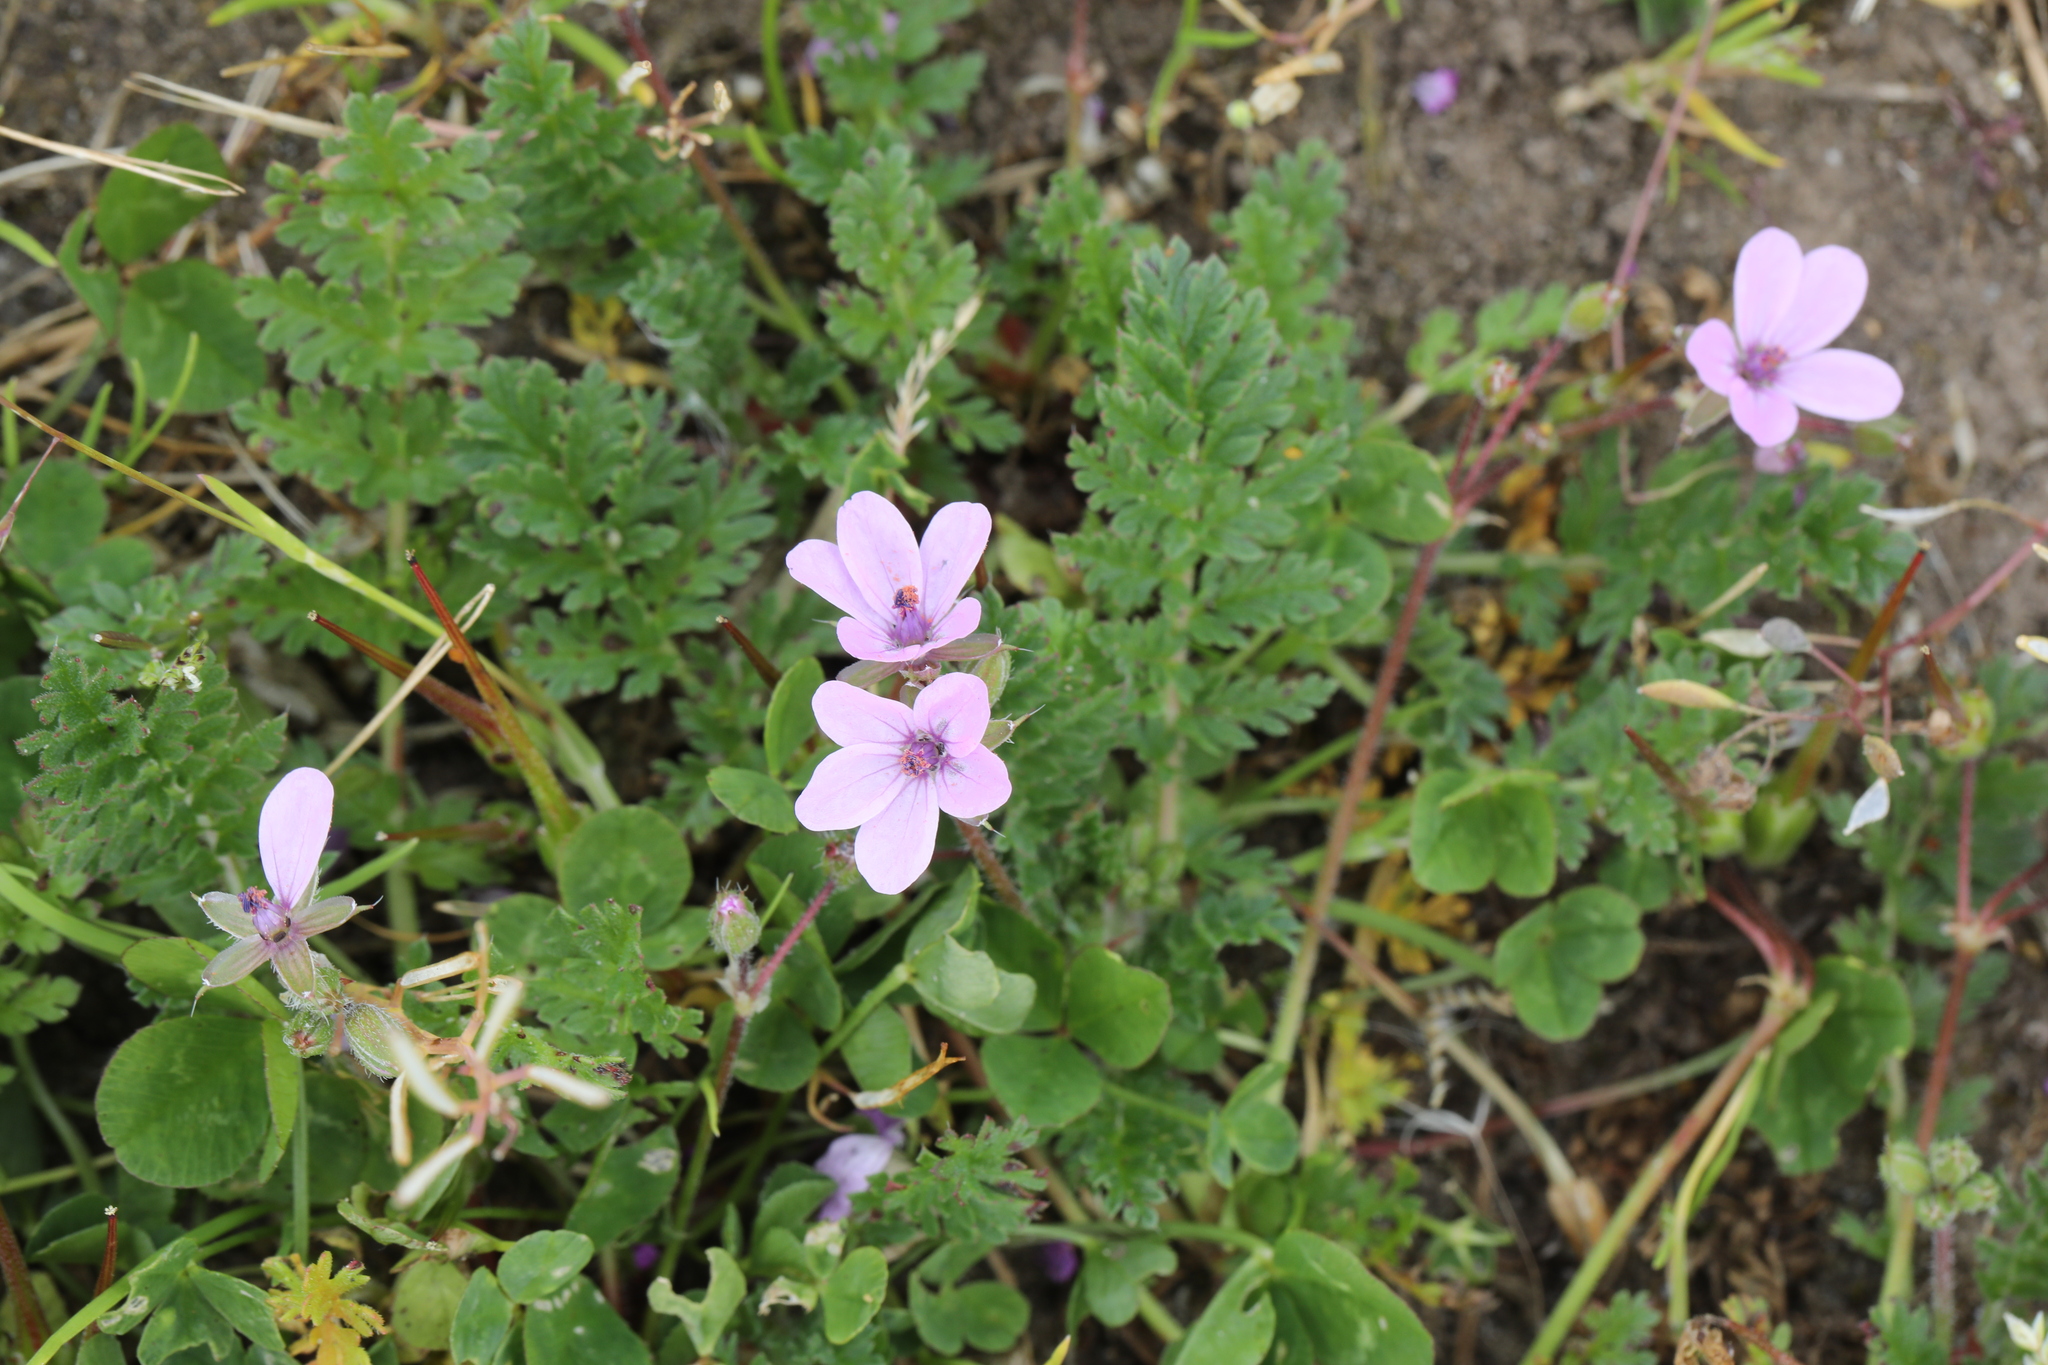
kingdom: Plantae
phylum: Tracheophyta
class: Magnoliopsida
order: Geraniales
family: Geraniaceae
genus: Erodium
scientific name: Erodium cicutarium
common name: Common stork's-bill
